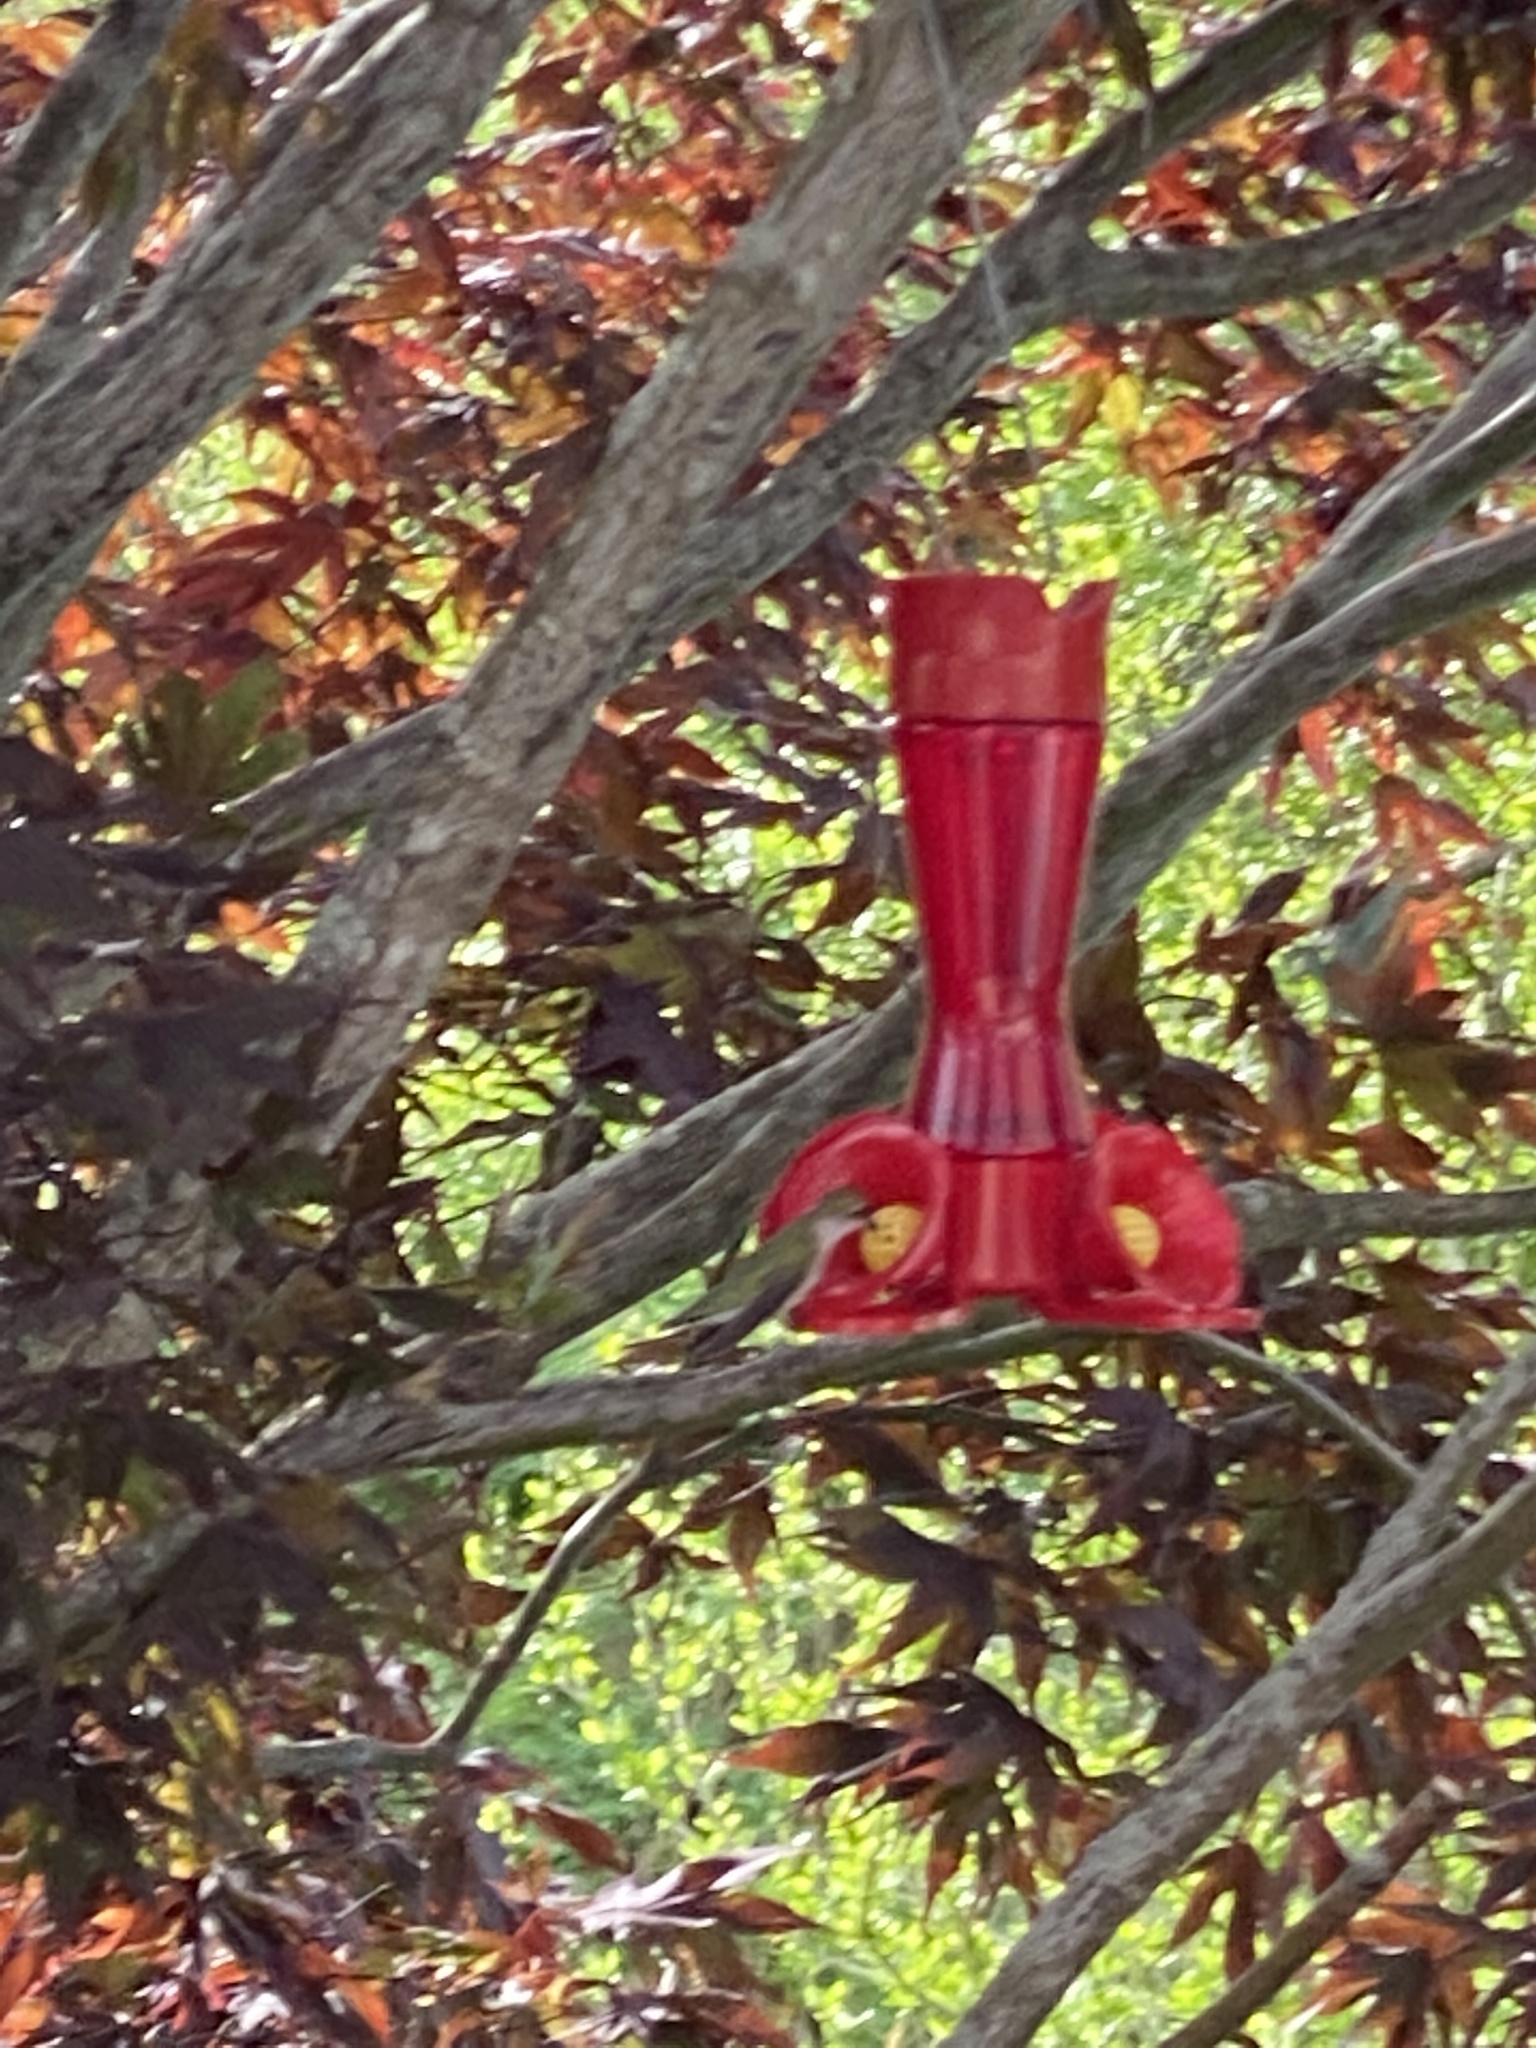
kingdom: Animalia
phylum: Chordata
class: Aves
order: Apodiformes
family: Trochilidae
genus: Archilochus
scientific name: Archilochus colubris
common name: Ruby-throated hummingbird
